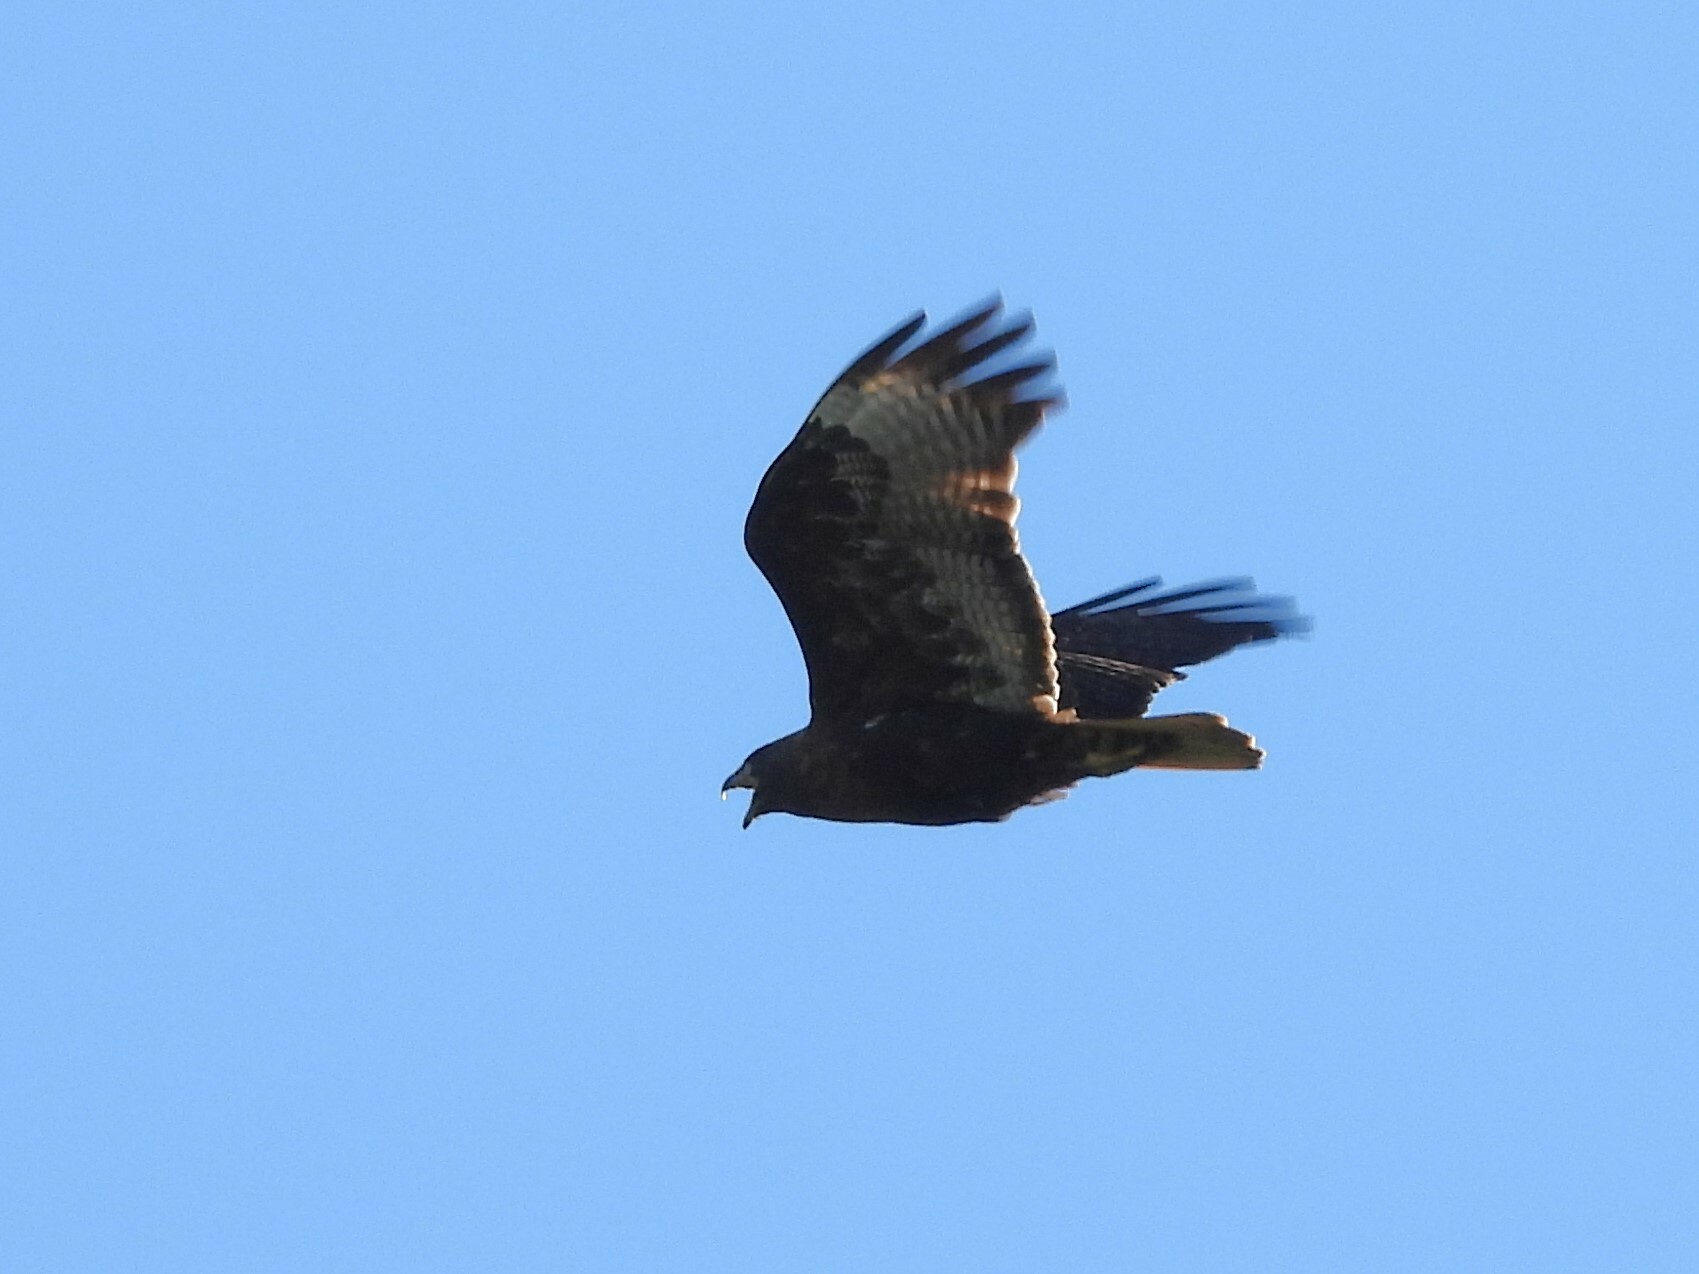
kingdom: Animalia
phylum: Chordata
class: Aves
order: Accipitriformes
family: Accipitridae
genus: Buteo
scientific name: Buteo jamaicensis
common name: Red-tailed hawk
